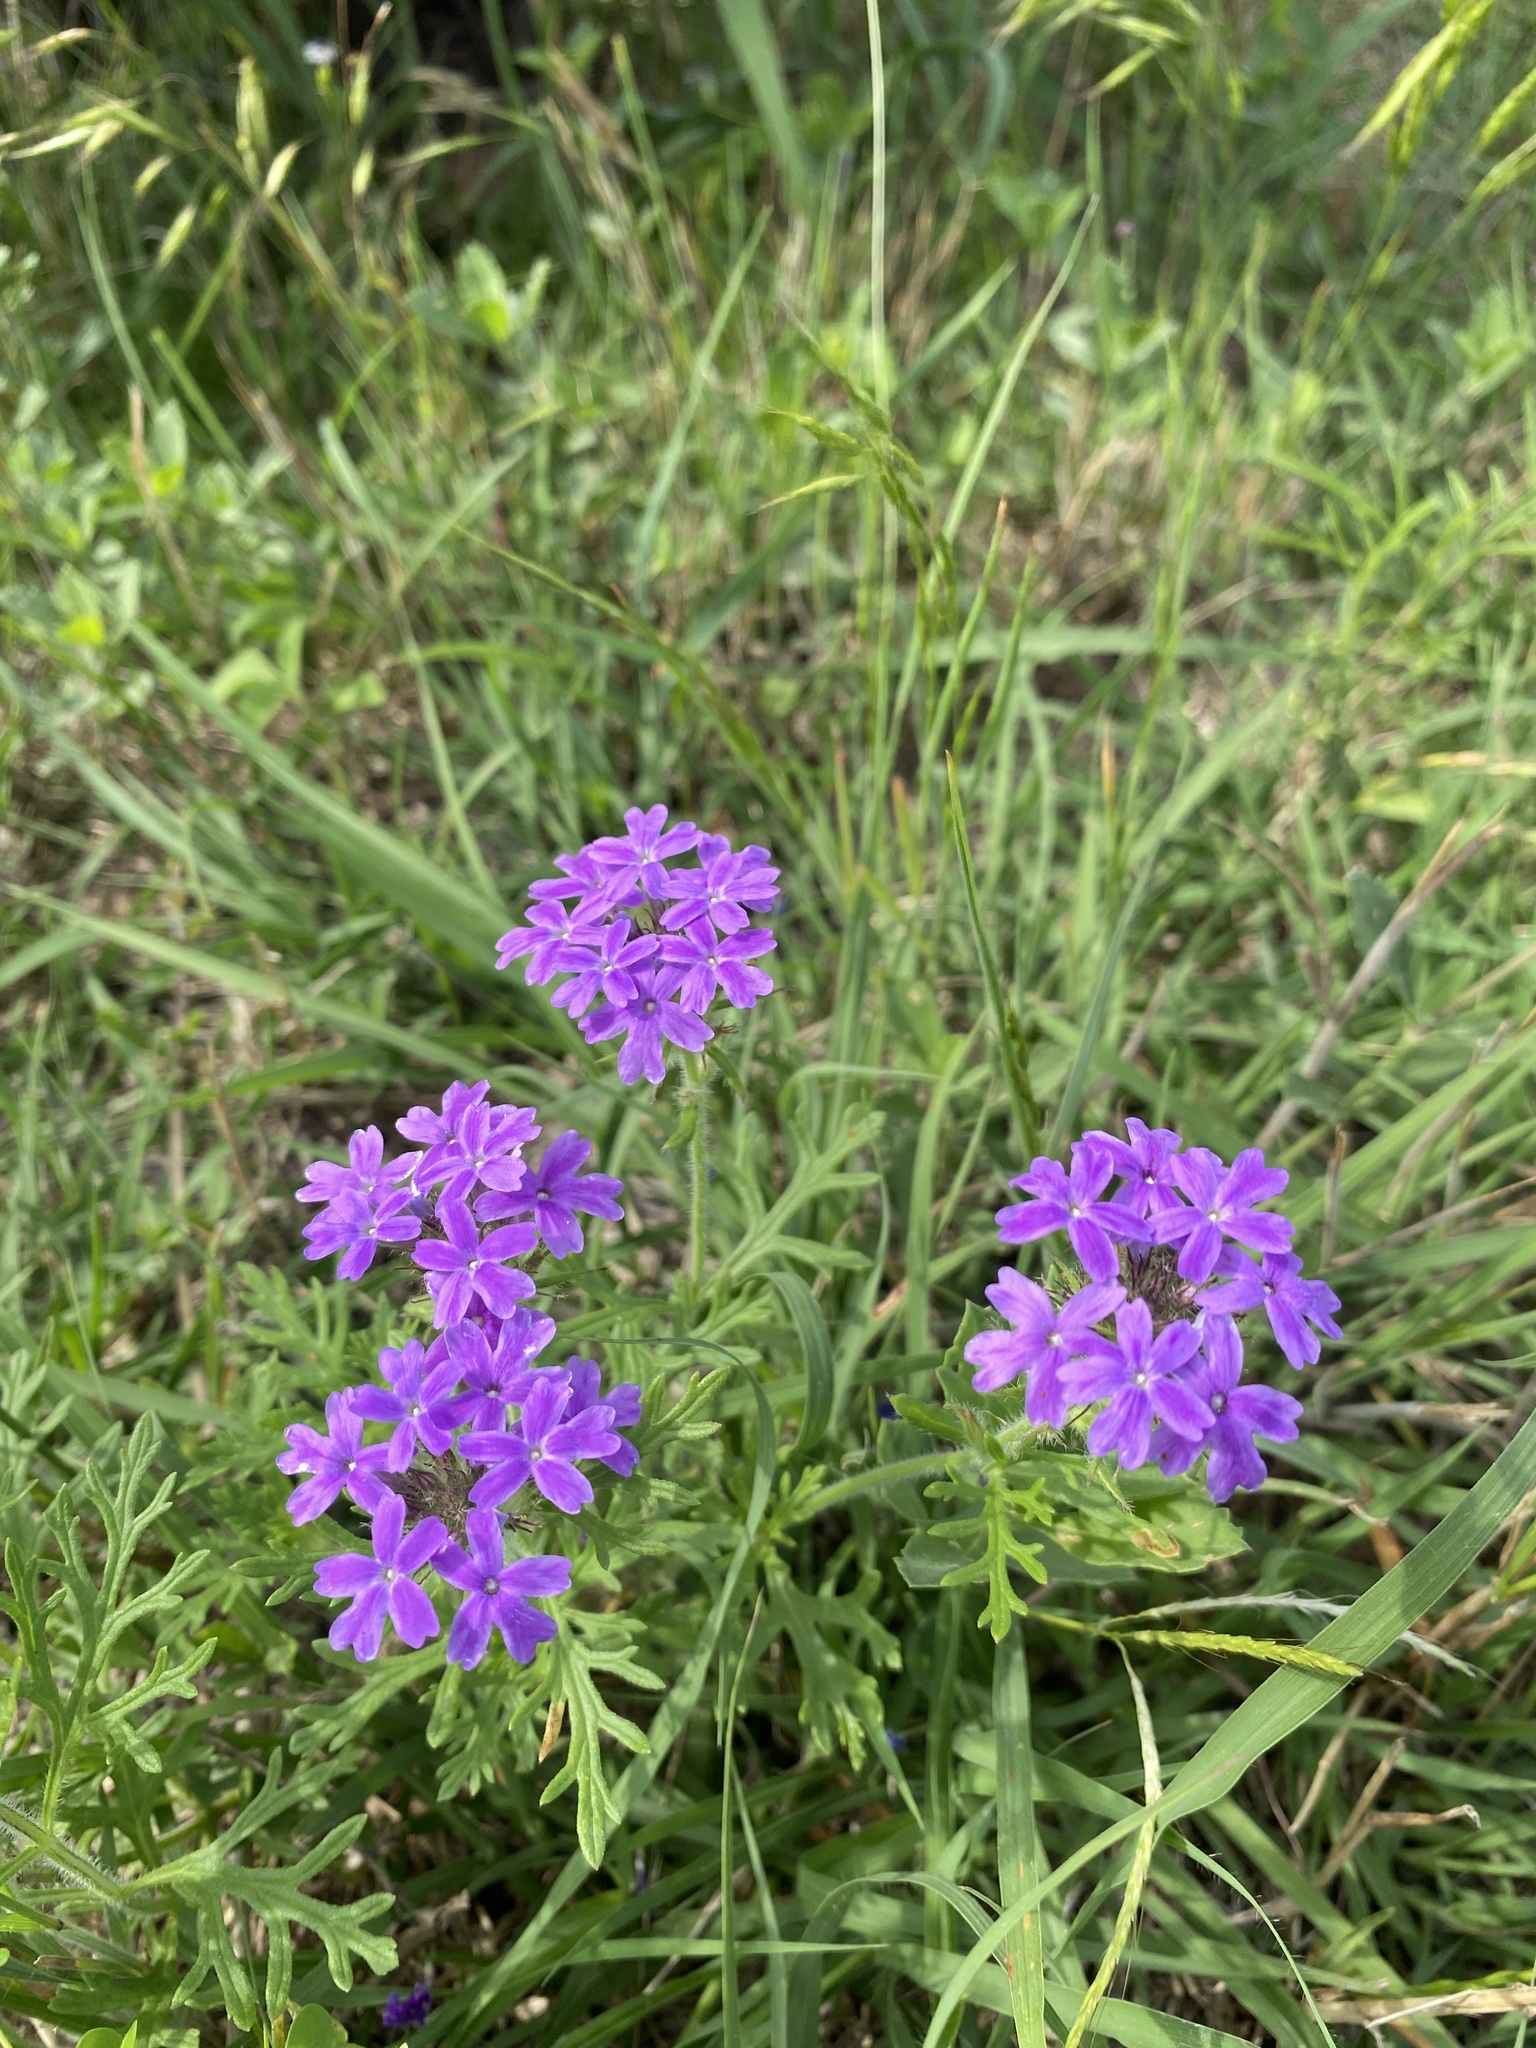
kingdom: Plantae
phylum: Tracheophyta
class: Magnoliopsida
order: Lamiales
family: Verbenaceae
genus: Verbena
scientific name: Verbena bipinnatifida
